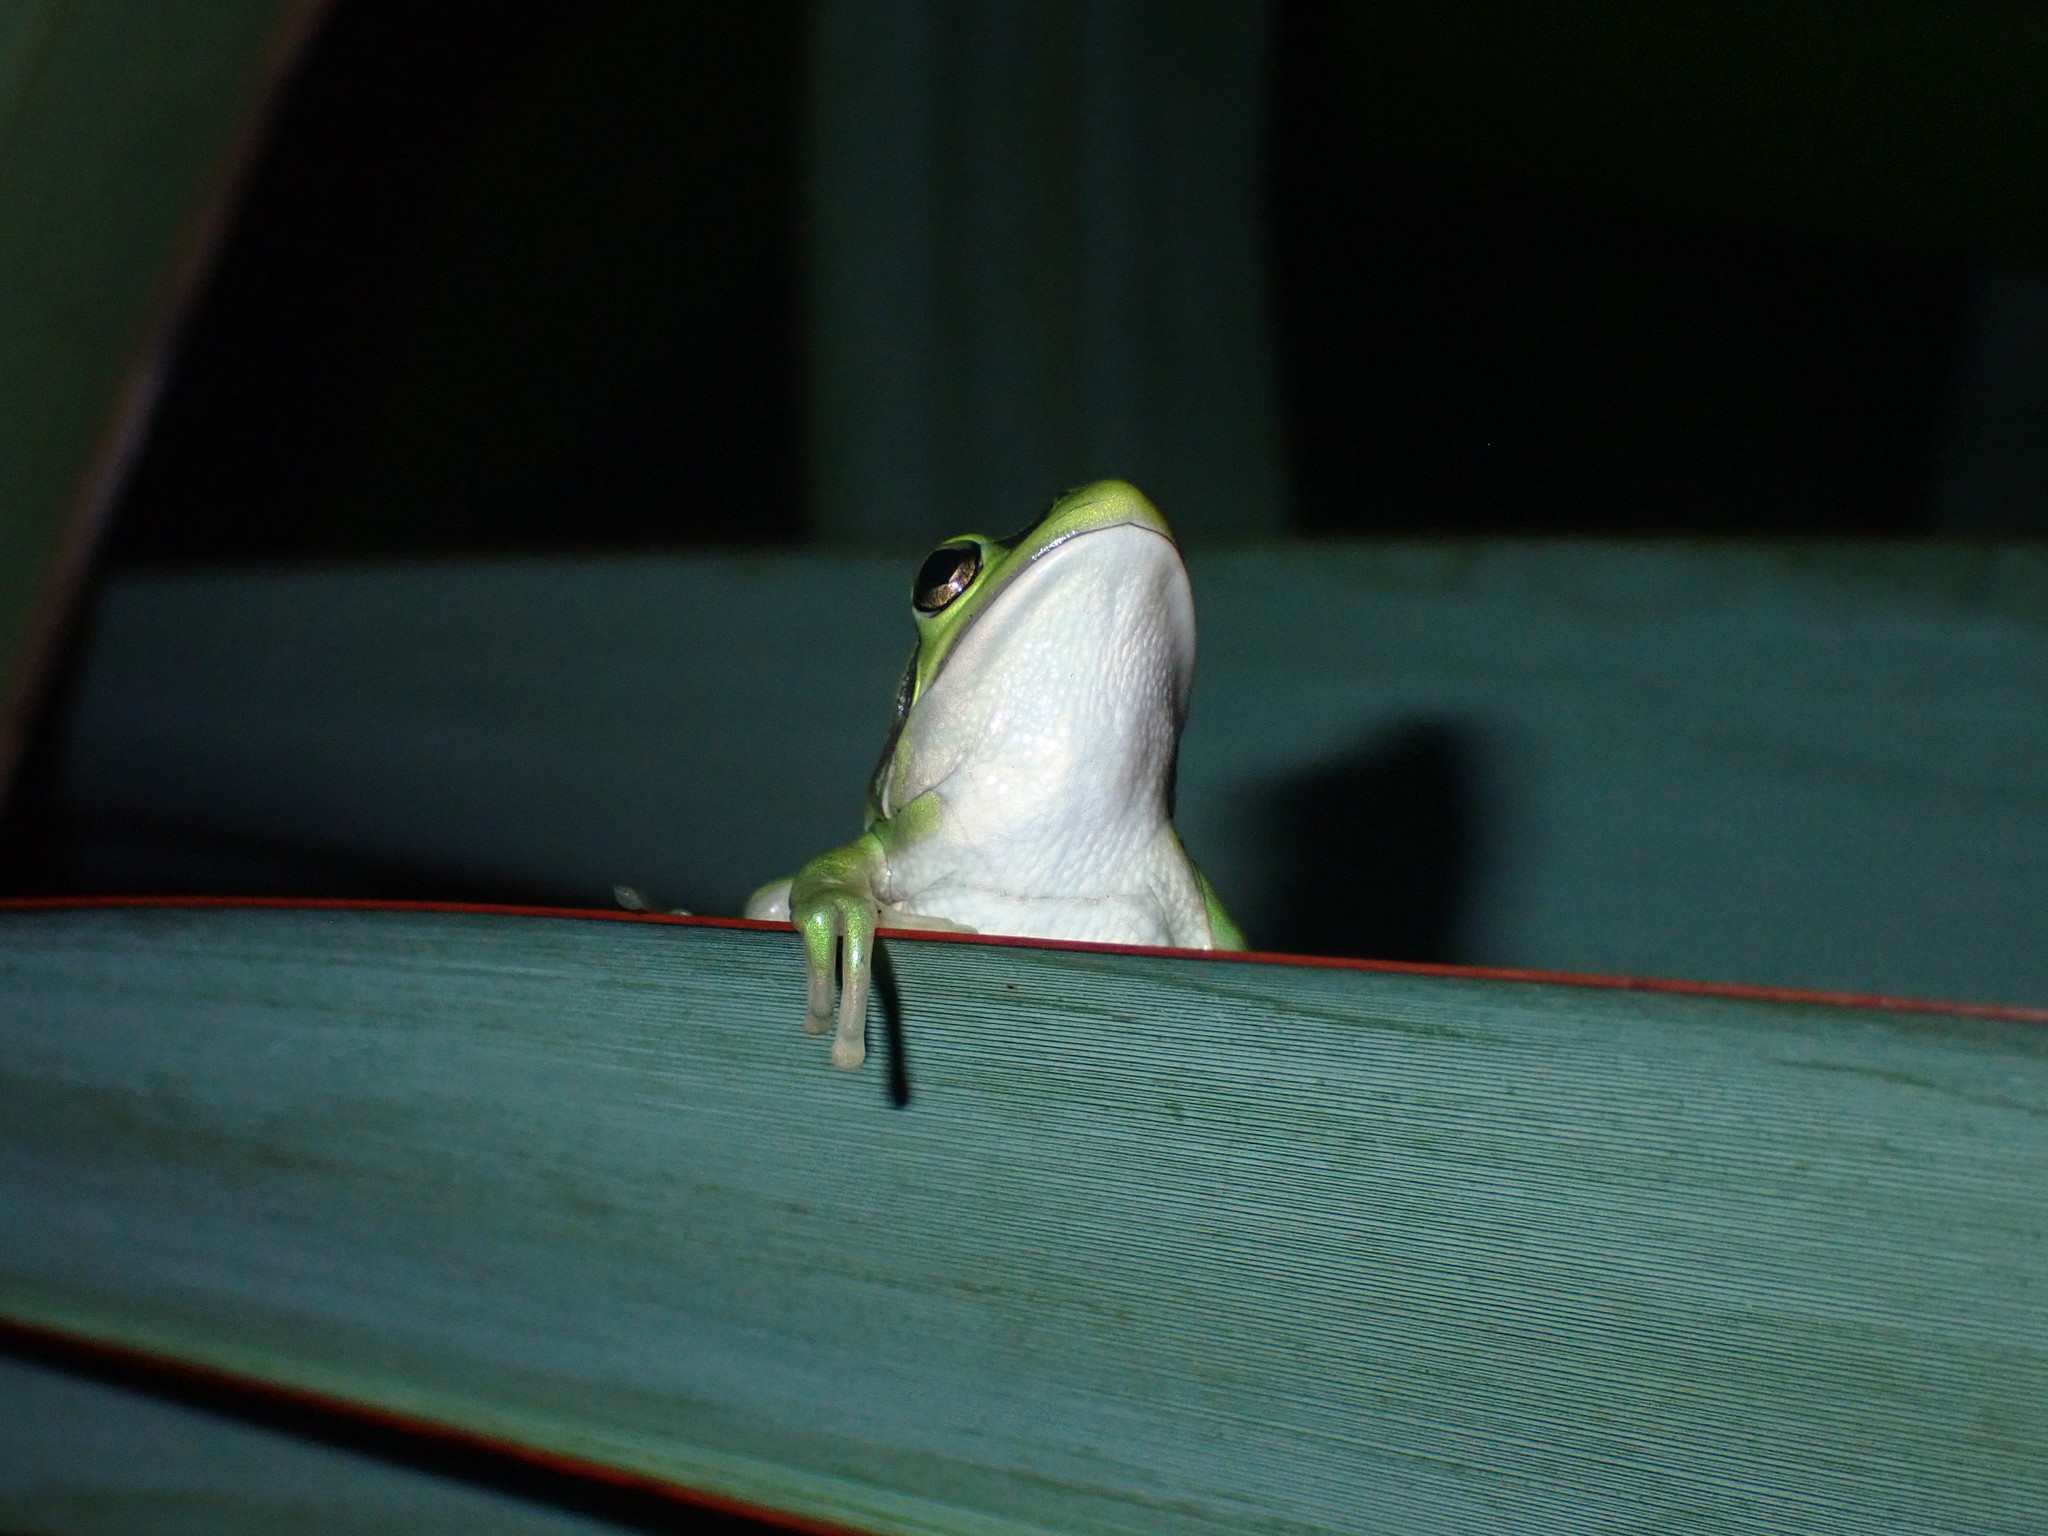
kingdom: Animalia
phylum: Chordata
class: Amphibia
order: Anura
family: Pelodryadidae
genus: Ranoidea
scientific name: Ranoidea aurea
